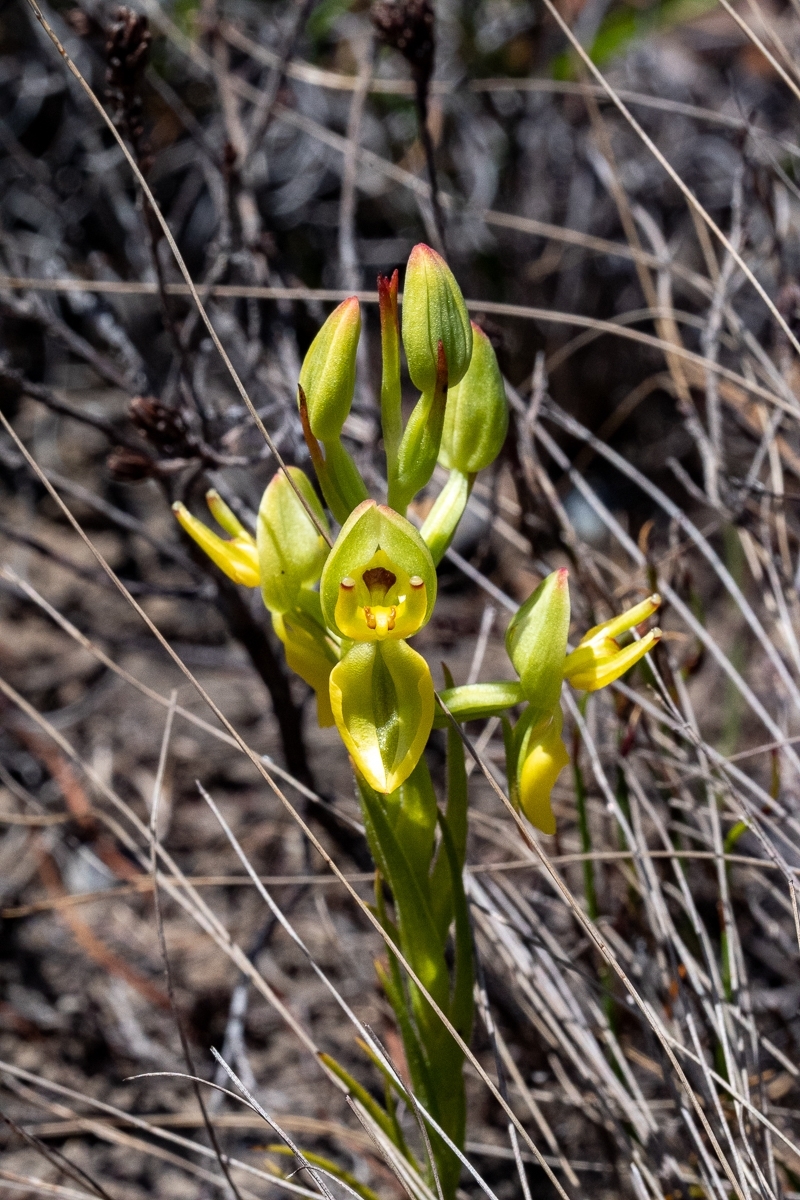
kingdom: Plantae
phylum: Tracheophyta
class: Liliopsida
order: Asparagales
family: Orchidaceae
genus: Ceratandra
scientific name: Ceratandra atrata
